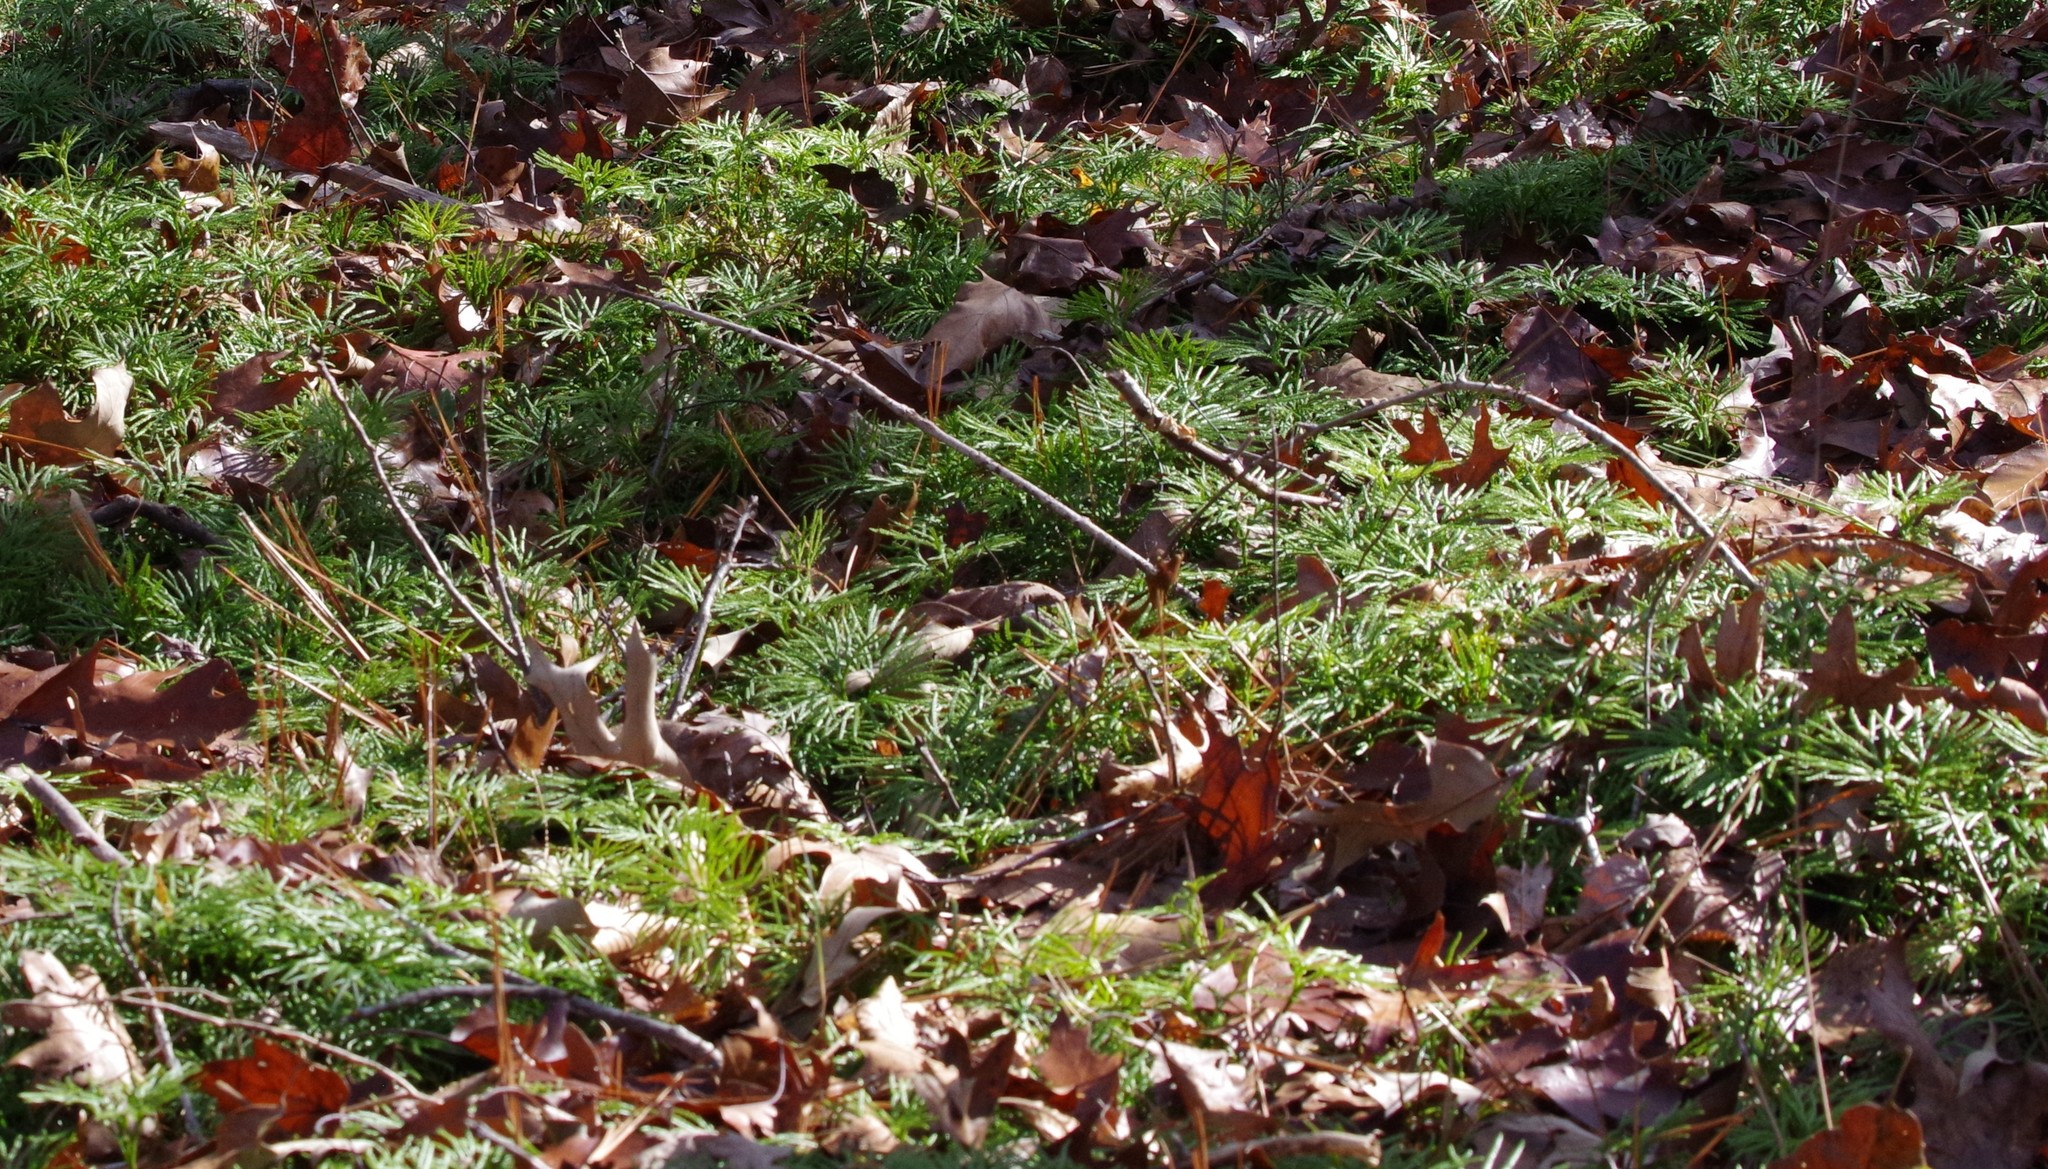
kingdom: Plantae
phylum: Tracheophyta
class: Lycopodiopsida
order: Lycopodiales
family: Lycopodiaceae
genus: Diphasiastrum
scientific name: Diphasiastrum digitatum
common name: Southern running-pine
